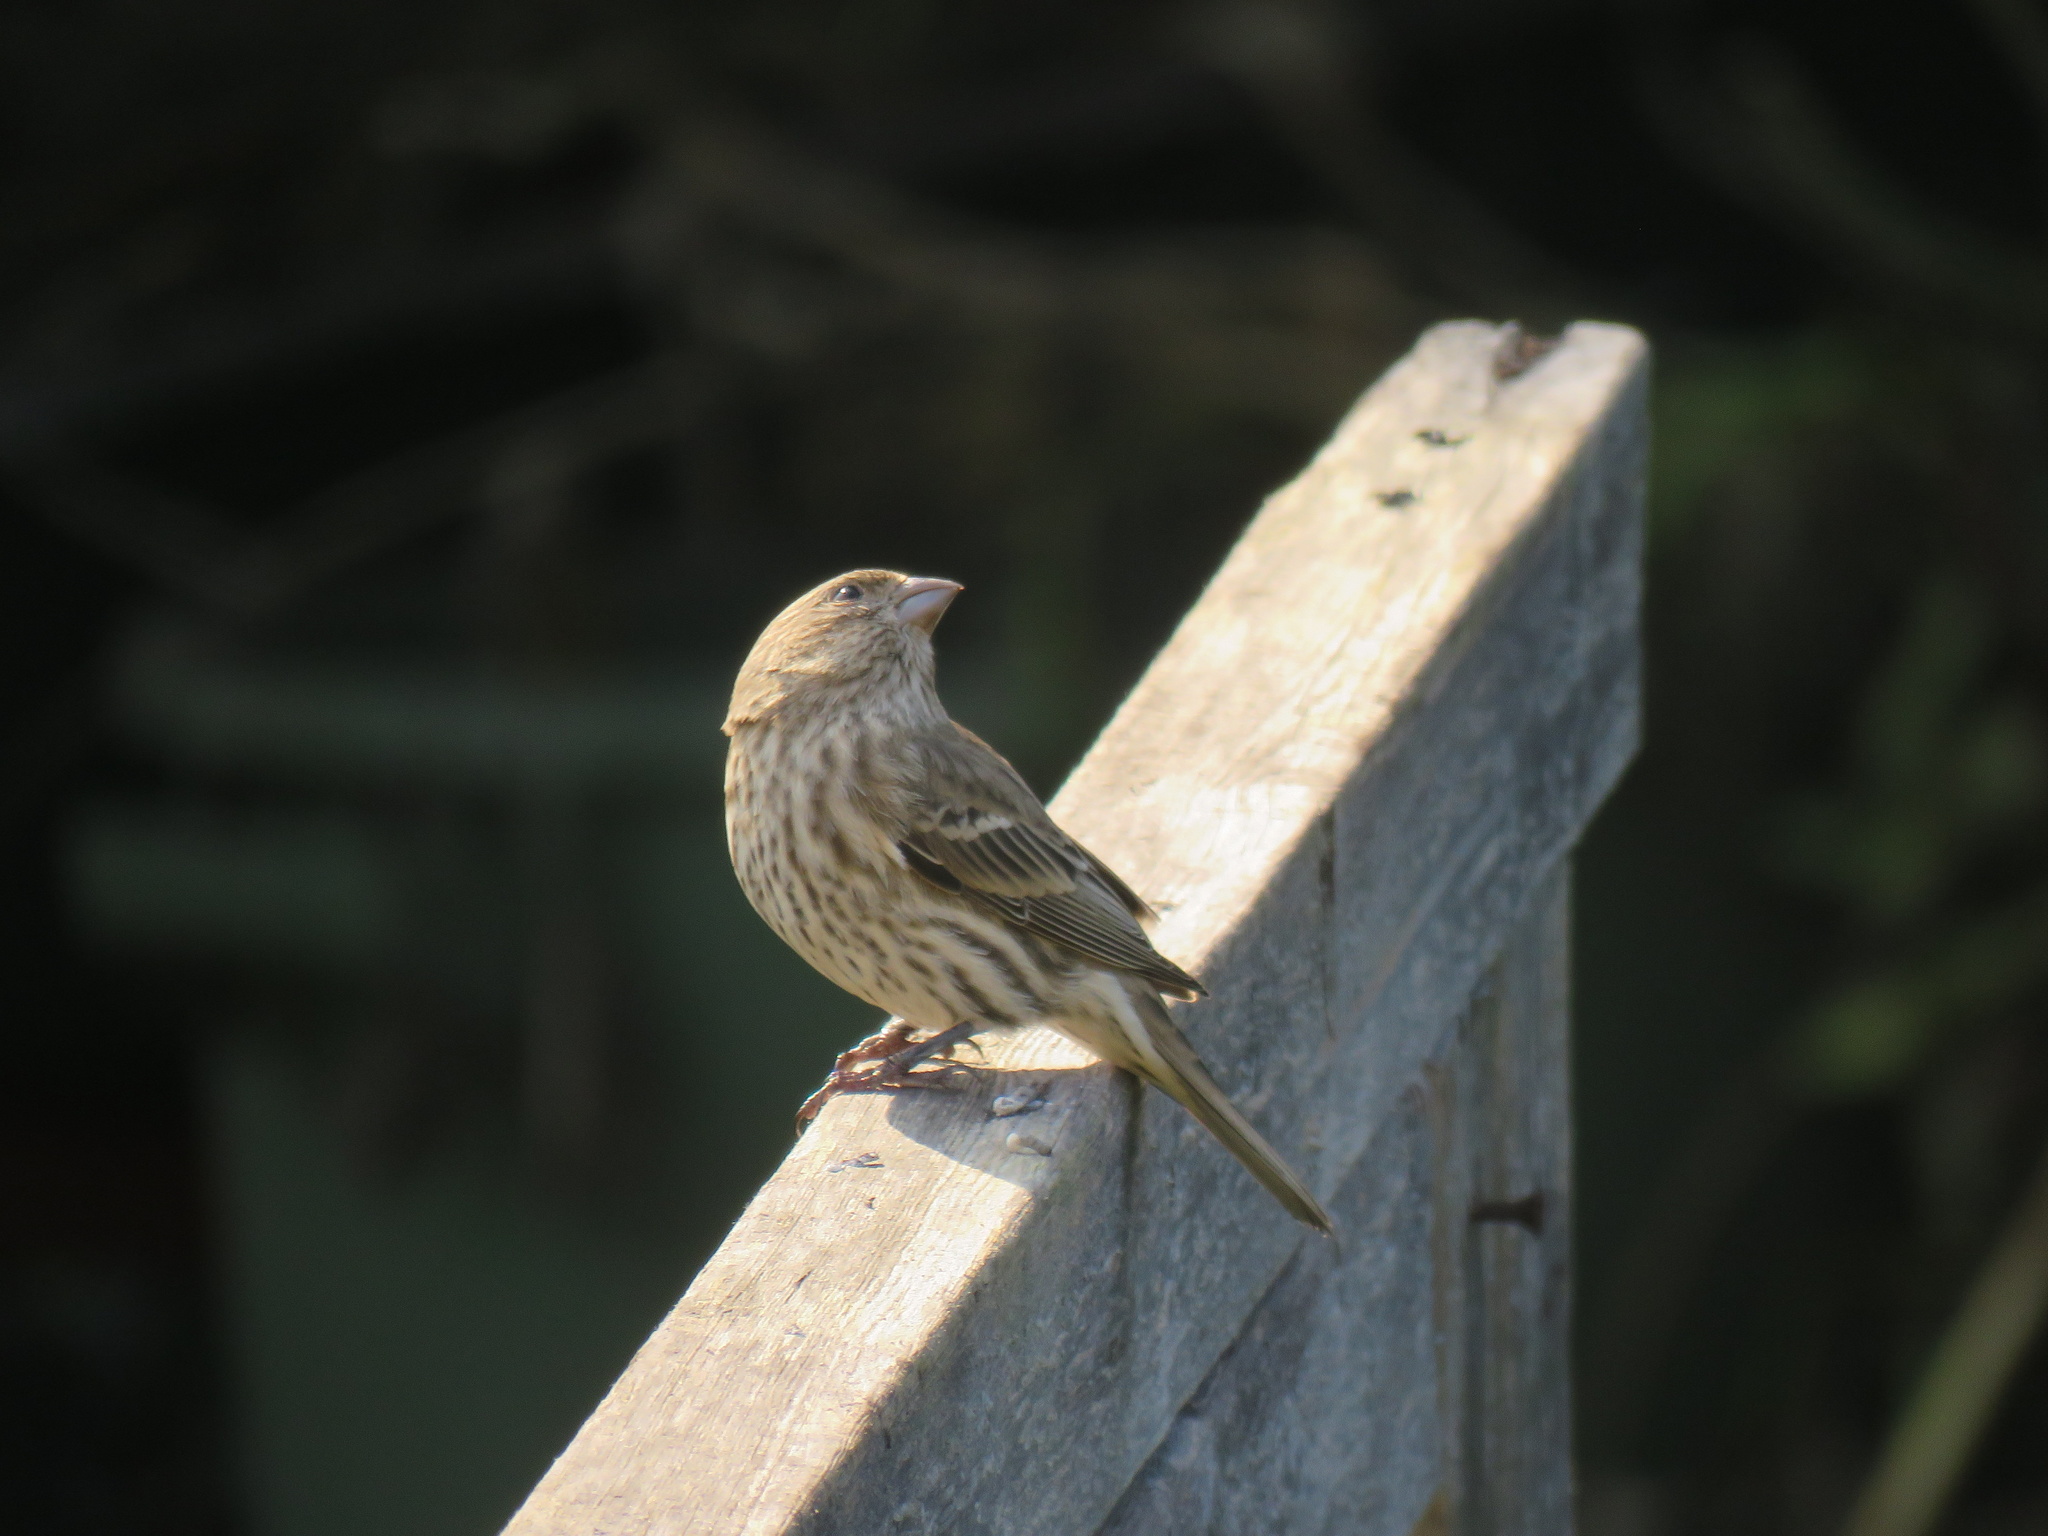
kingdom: Animalia
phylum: Chordata
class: Aves
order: Passeriformes
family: Fringillidae
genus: Haemorhous
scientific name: Haemorhous mexicanus
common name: House finch
